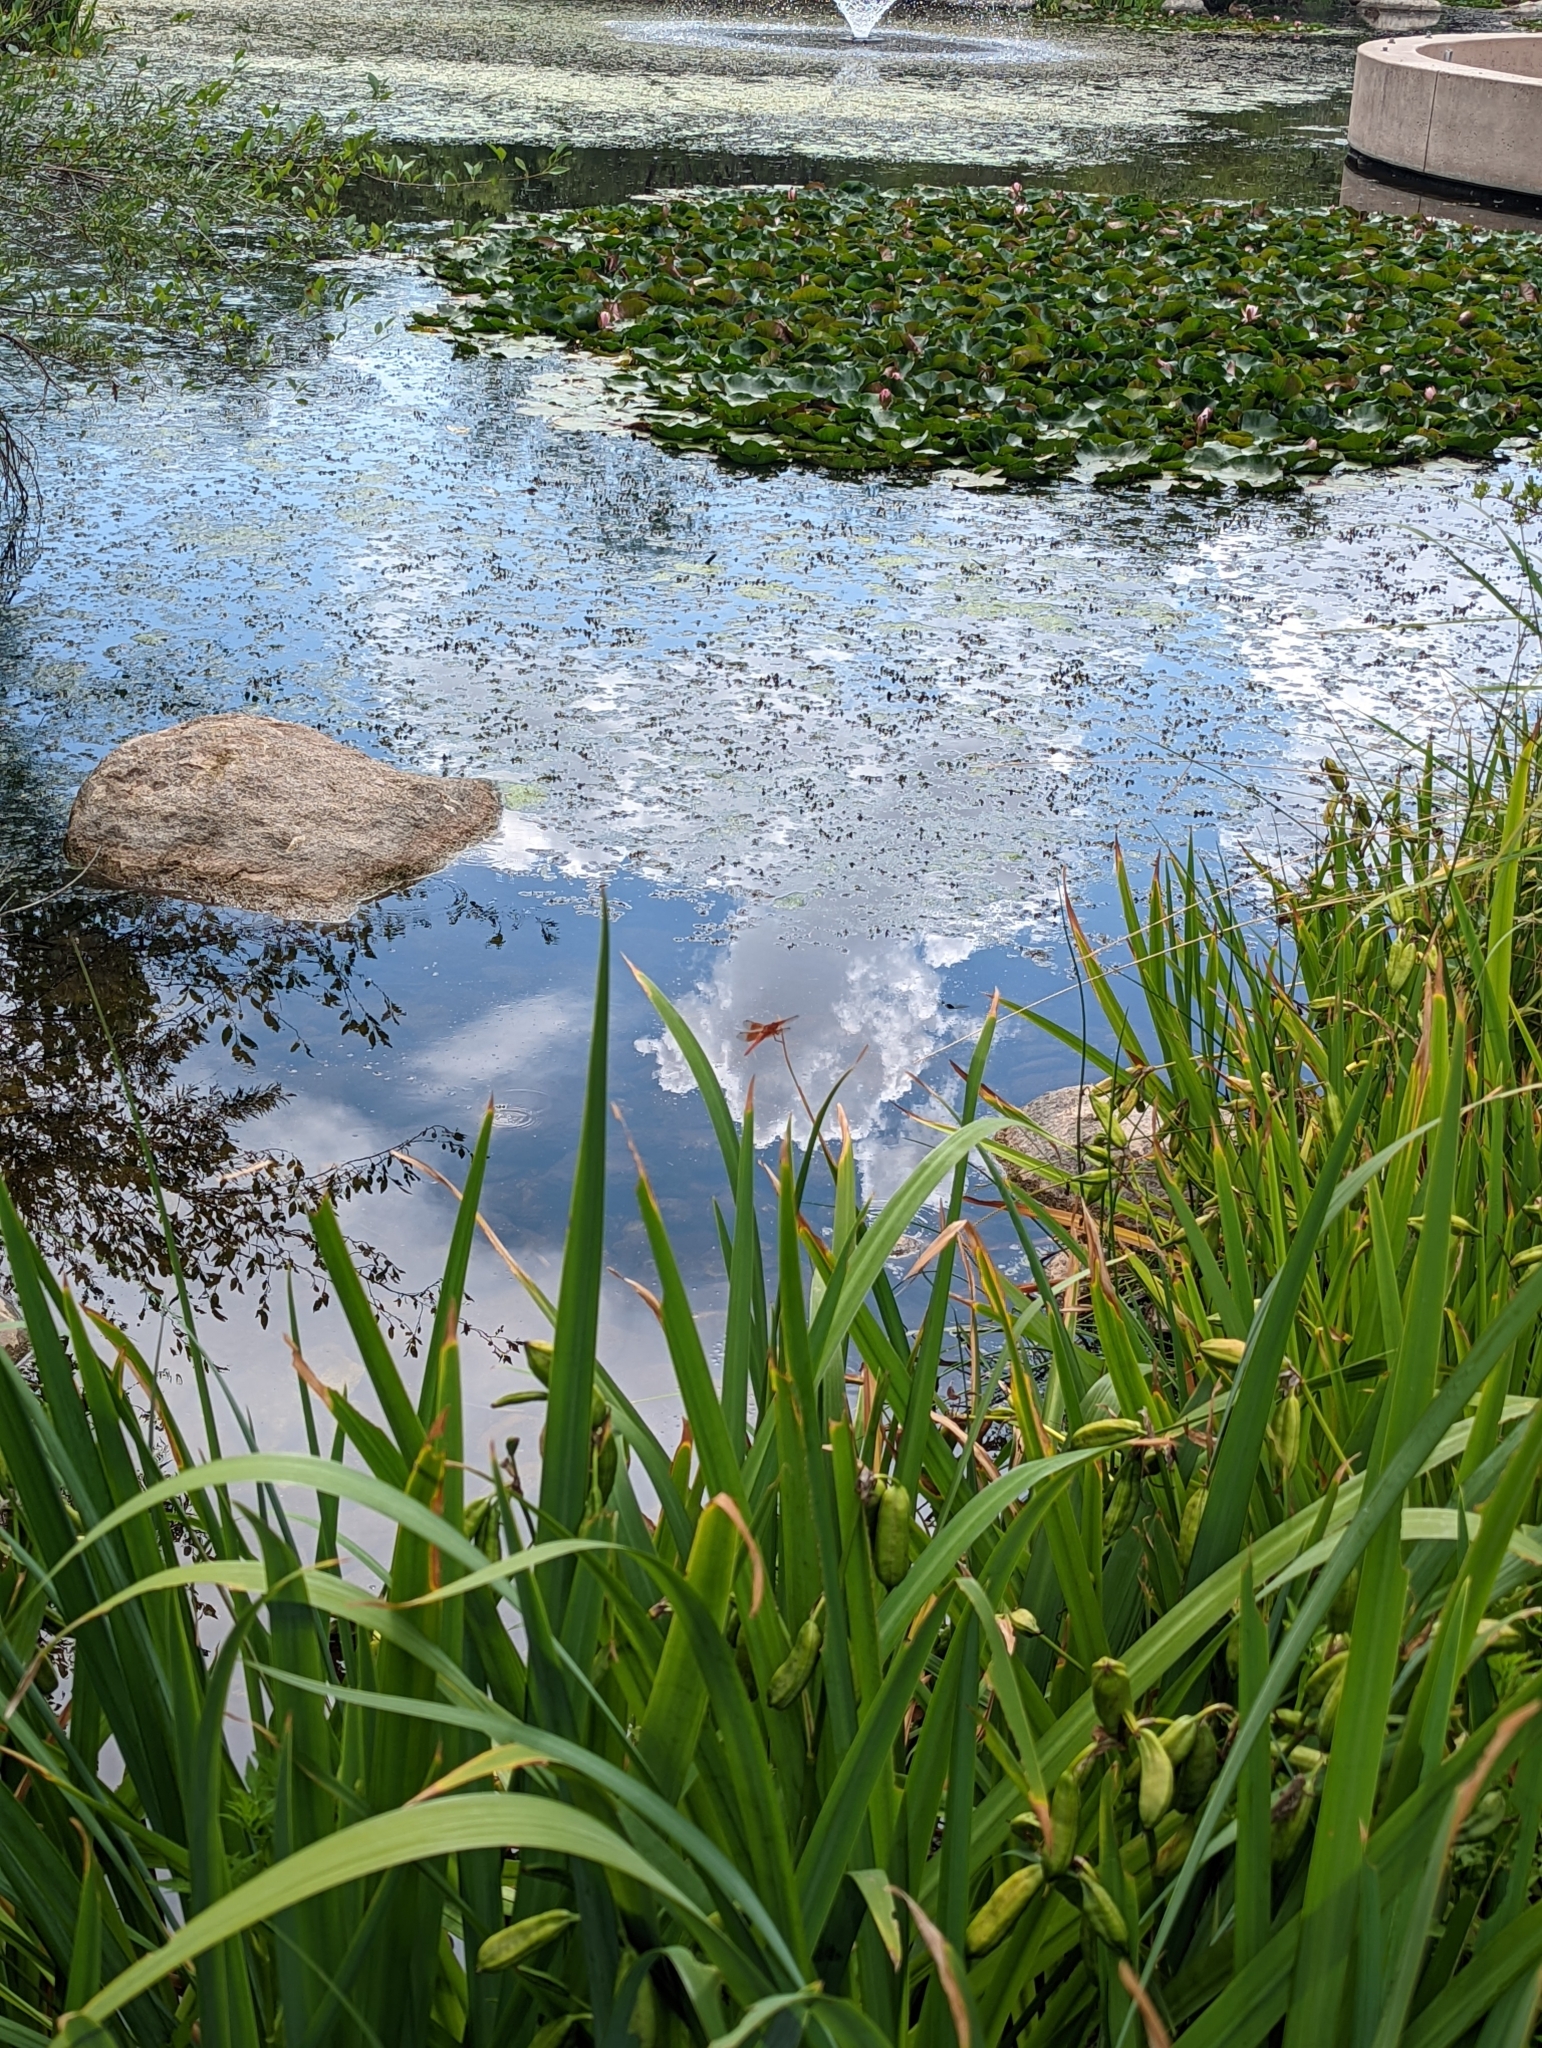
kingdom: Animalia
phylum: Arthropoda
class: Insecta
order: Odonata
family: Libellulidae
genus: Libellula
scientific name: Libellula saturata
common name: Flame skimmer
